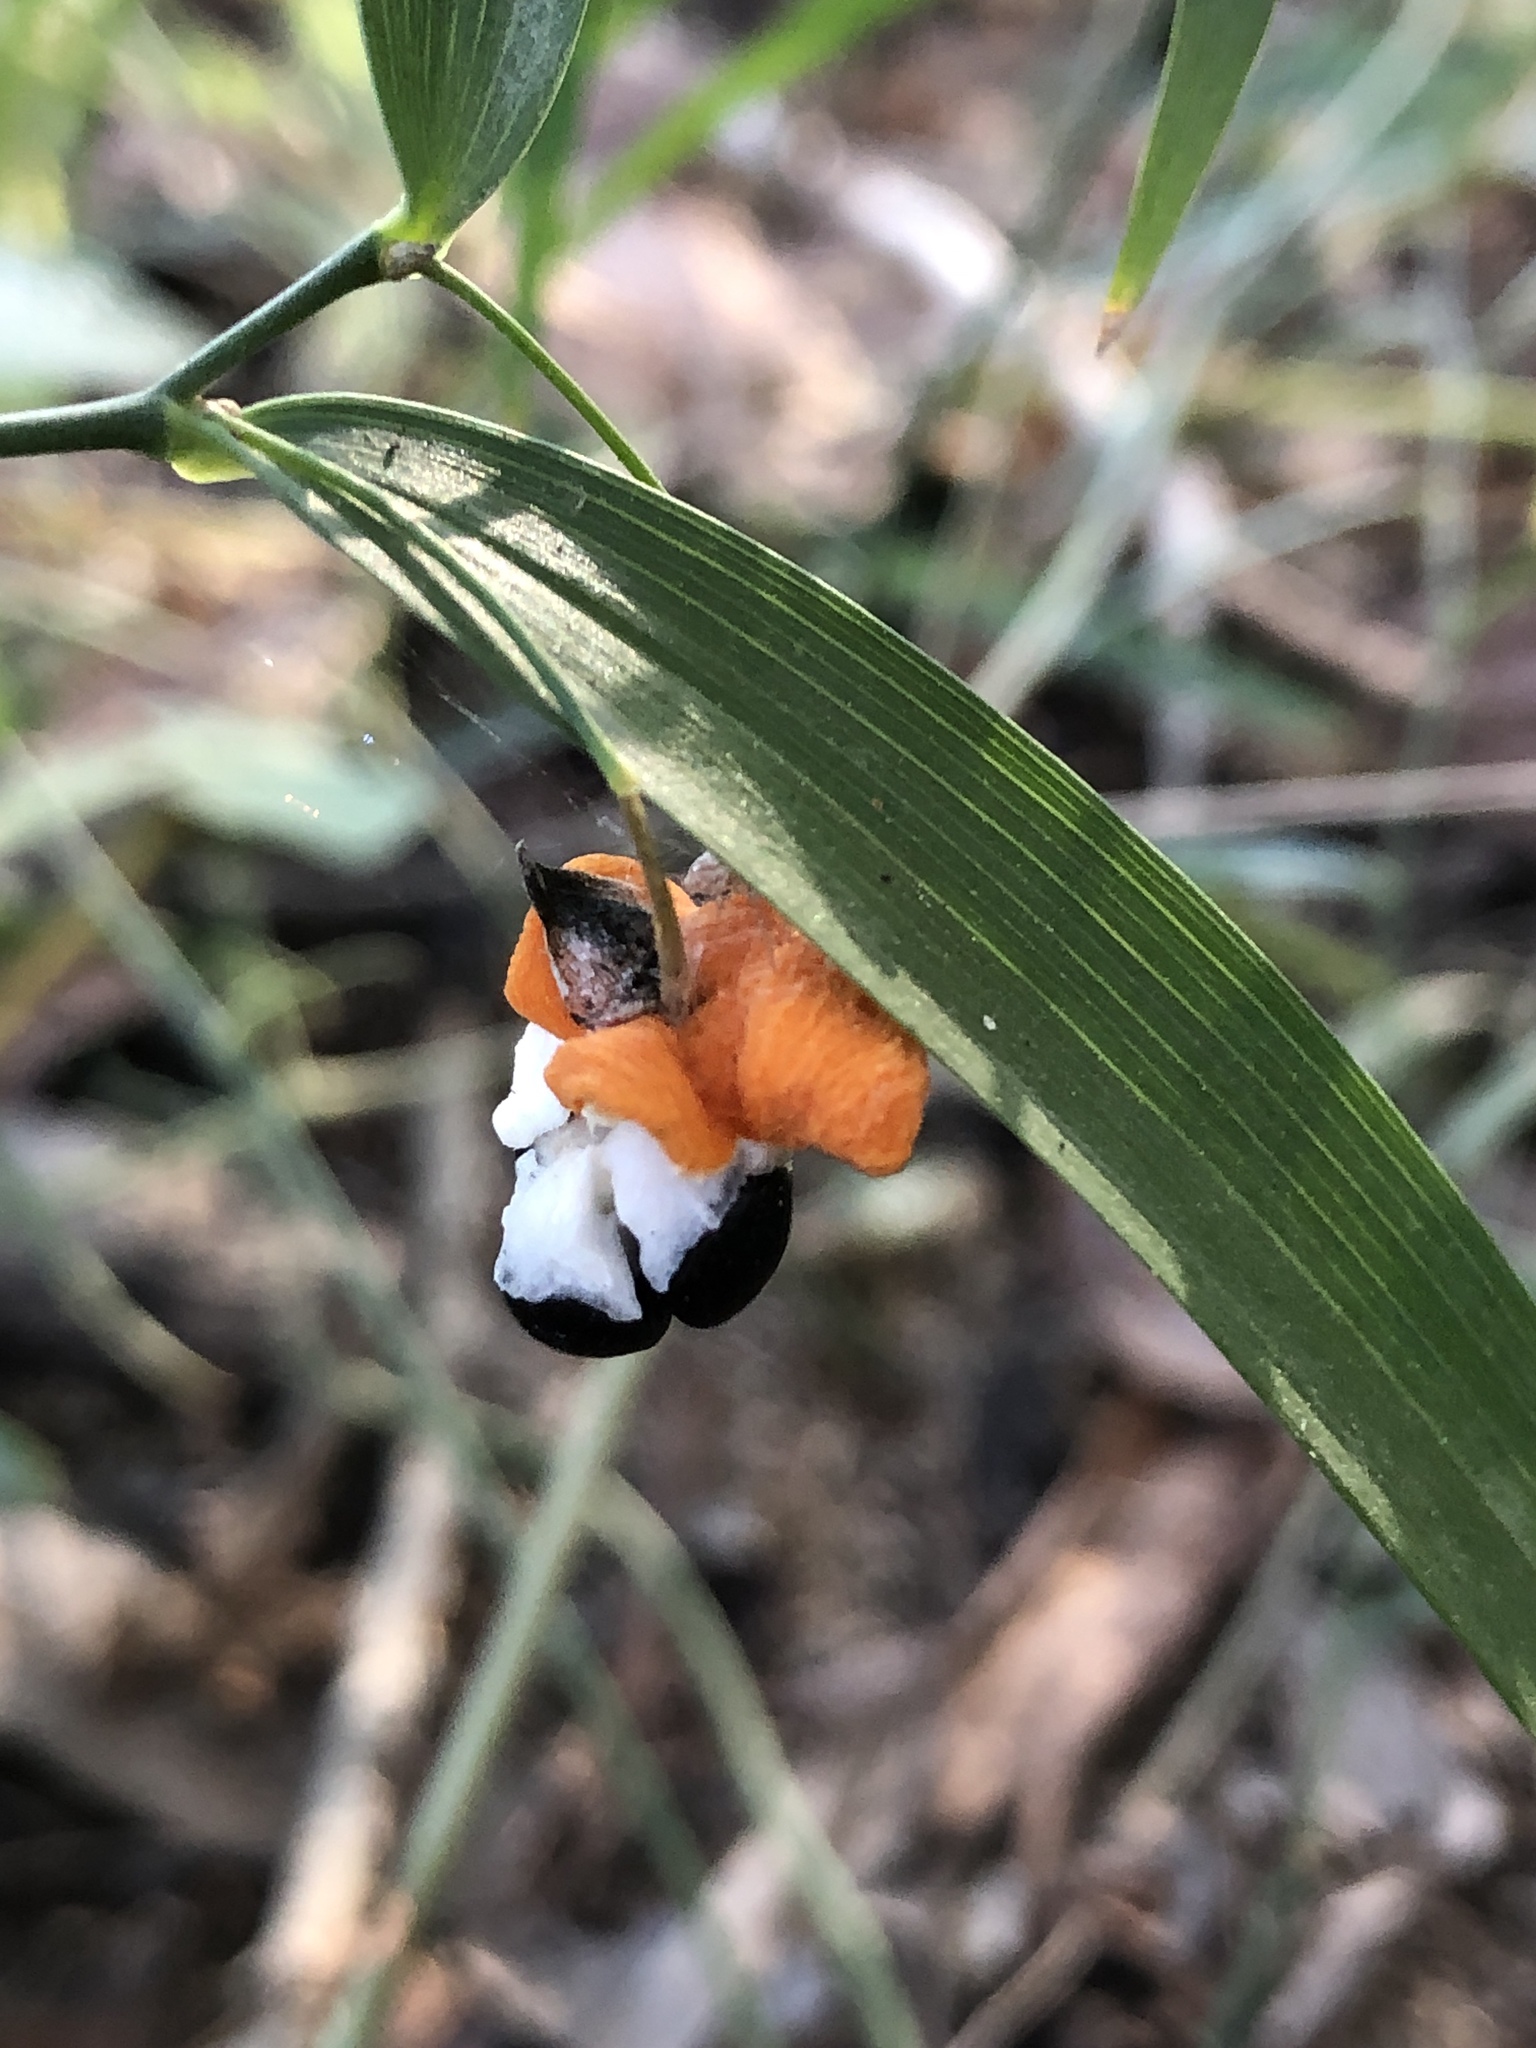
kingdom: Plantae
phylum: Tracheophyta
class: Liliopsida
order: Asparagales
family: Asparagaceae
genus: Eustrephus
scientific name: Eustrephus latifolius
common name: Orangevine
